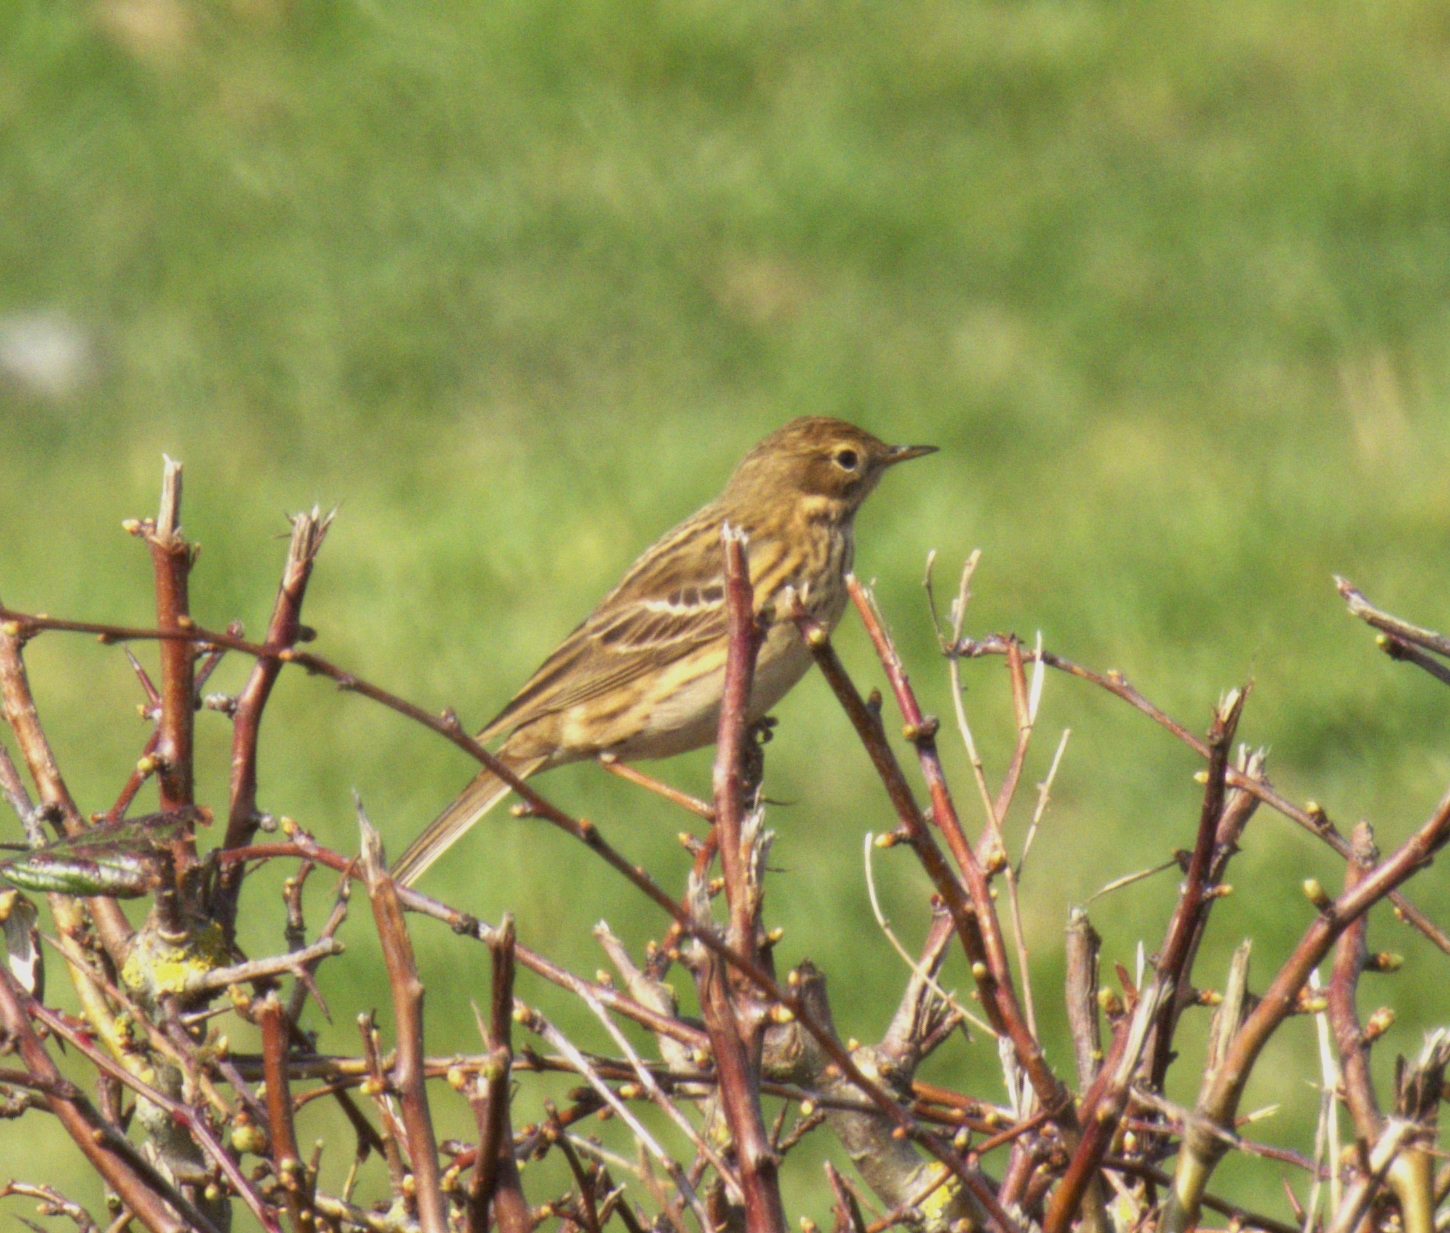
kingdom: Animalia
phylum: Chordata
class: Aves
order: Passeriformes
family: Motacillidae
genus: Anthus
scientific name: Anthus pratensis
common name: Meadow pipit
